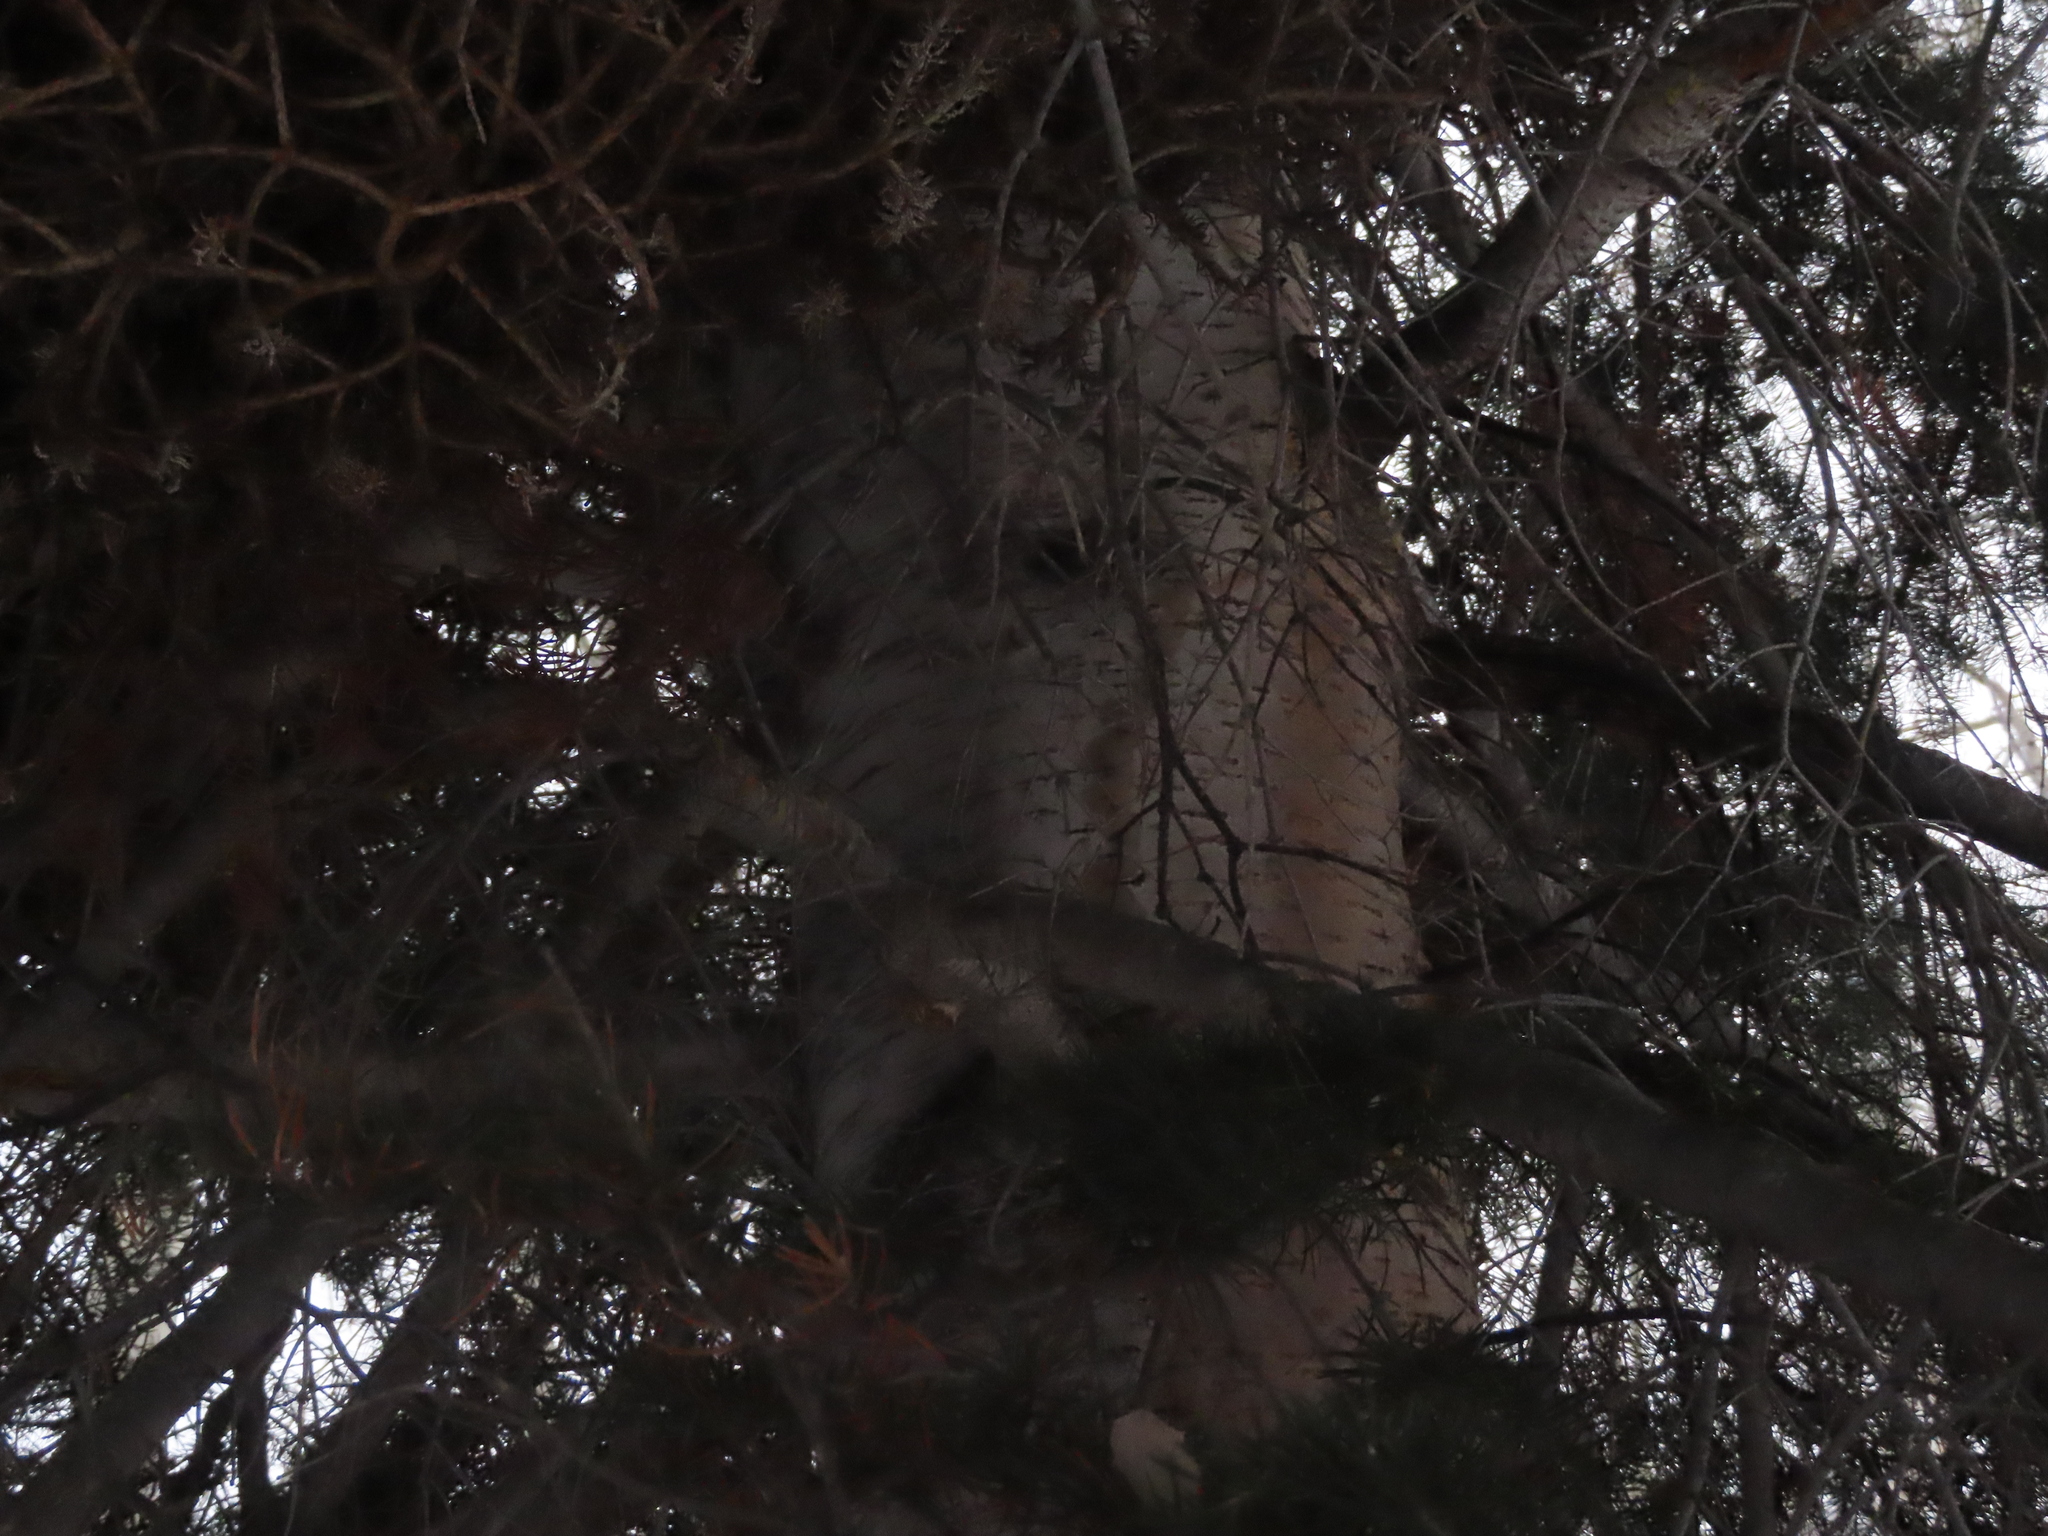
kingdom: Plantae
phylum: Tracheophyta
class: Pinopsida
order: Pinales
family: Pinaceae
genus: Abies
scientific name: Abies lasiocarpa
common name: Subalpine fir
